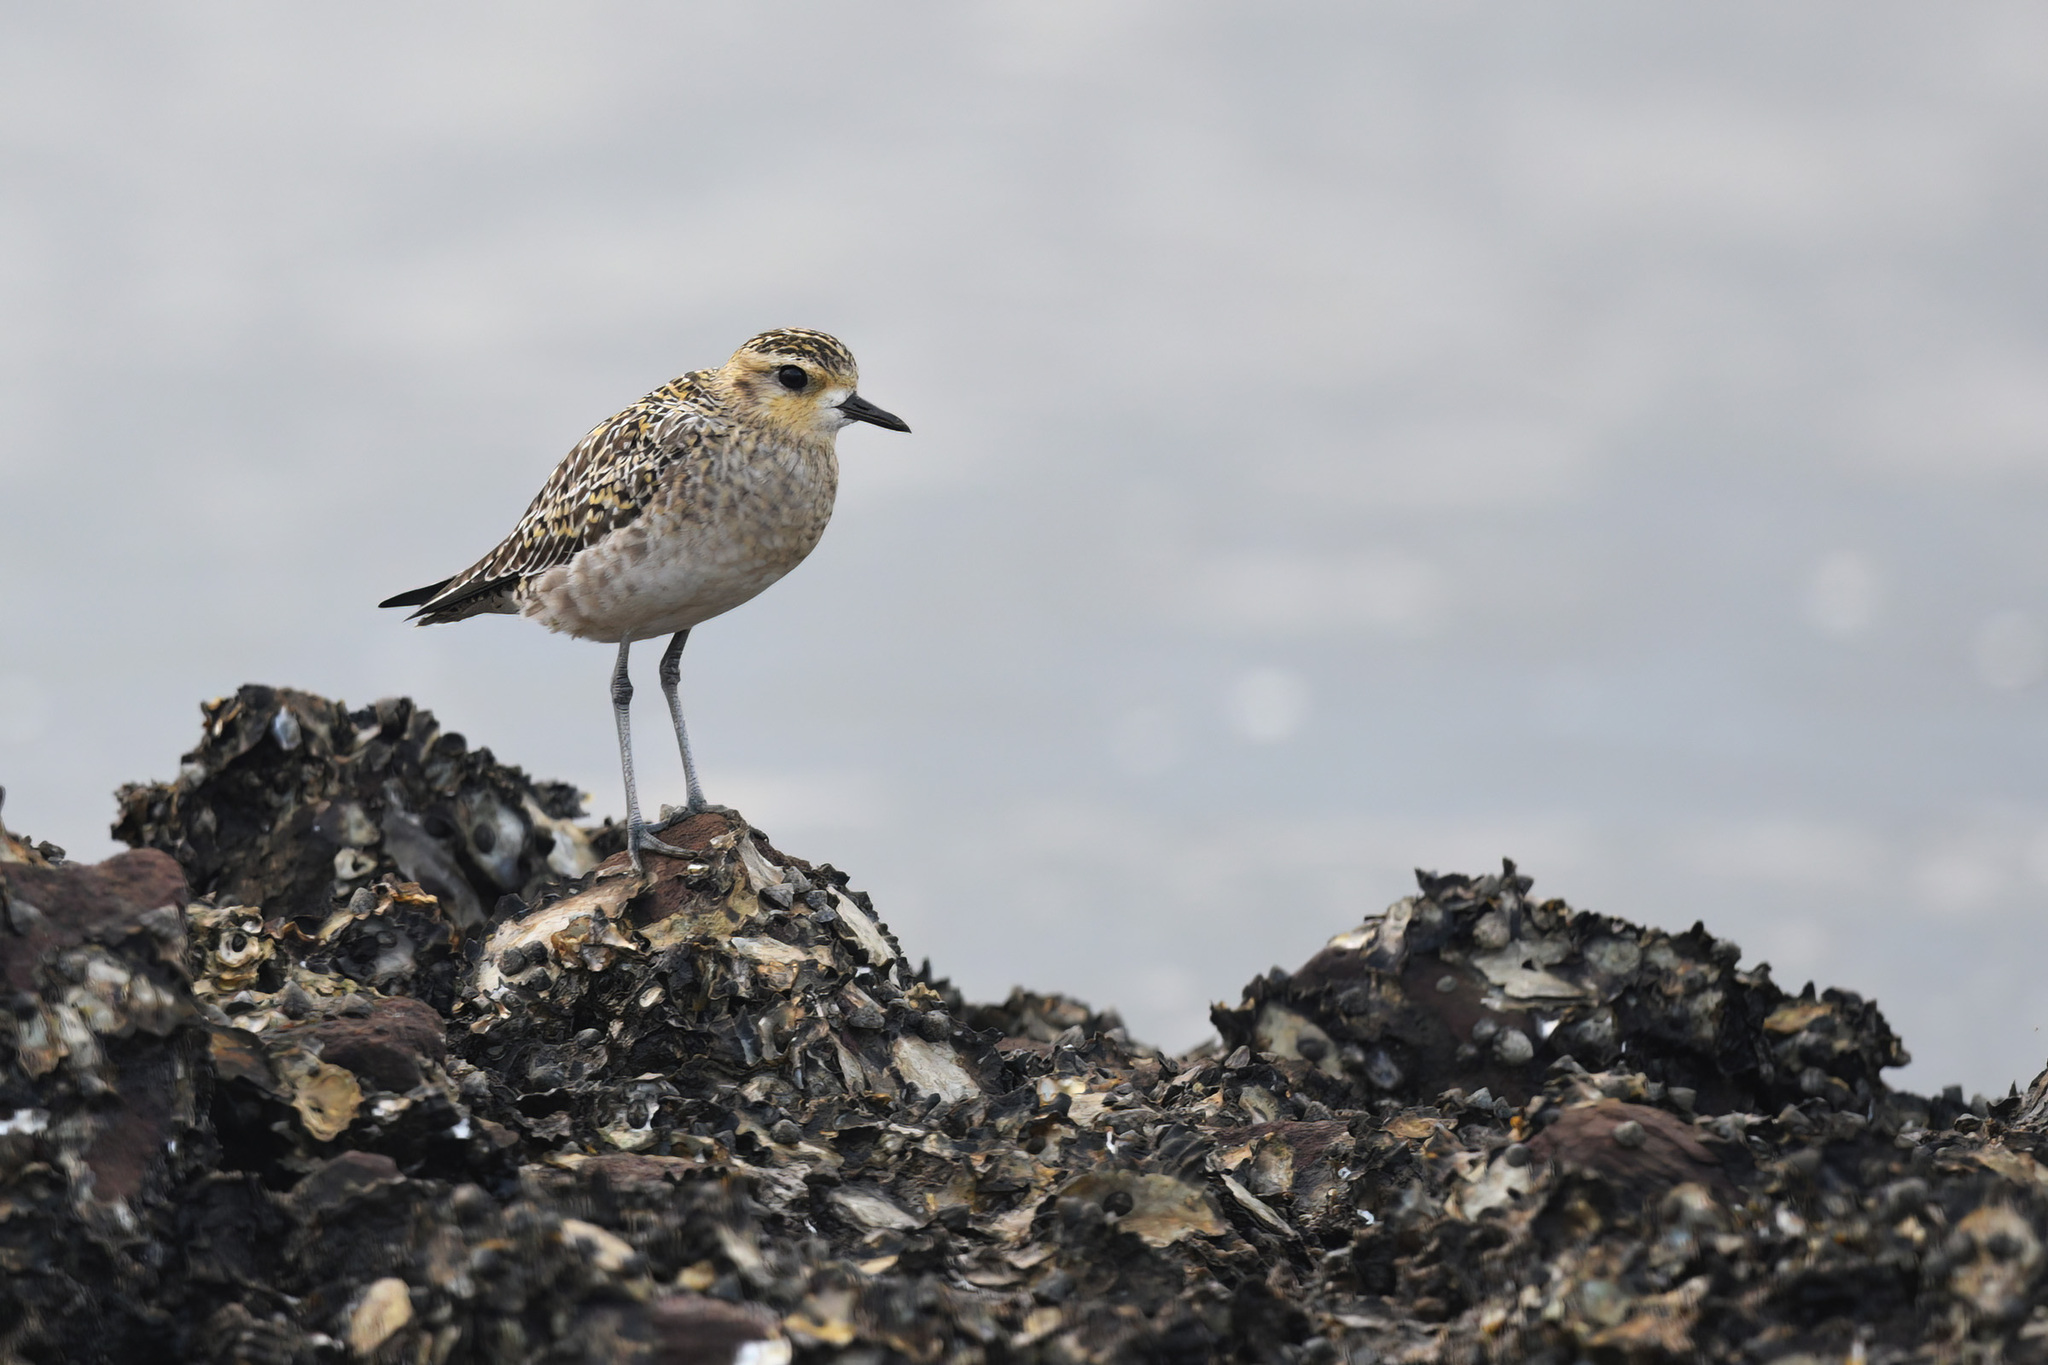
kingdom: Animalia
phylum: Chordata
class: Aves
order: Charadriiformes
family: Charadriidae
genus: Pluvialis
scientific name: Pluvialis fulva
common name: Pacific golden plover
